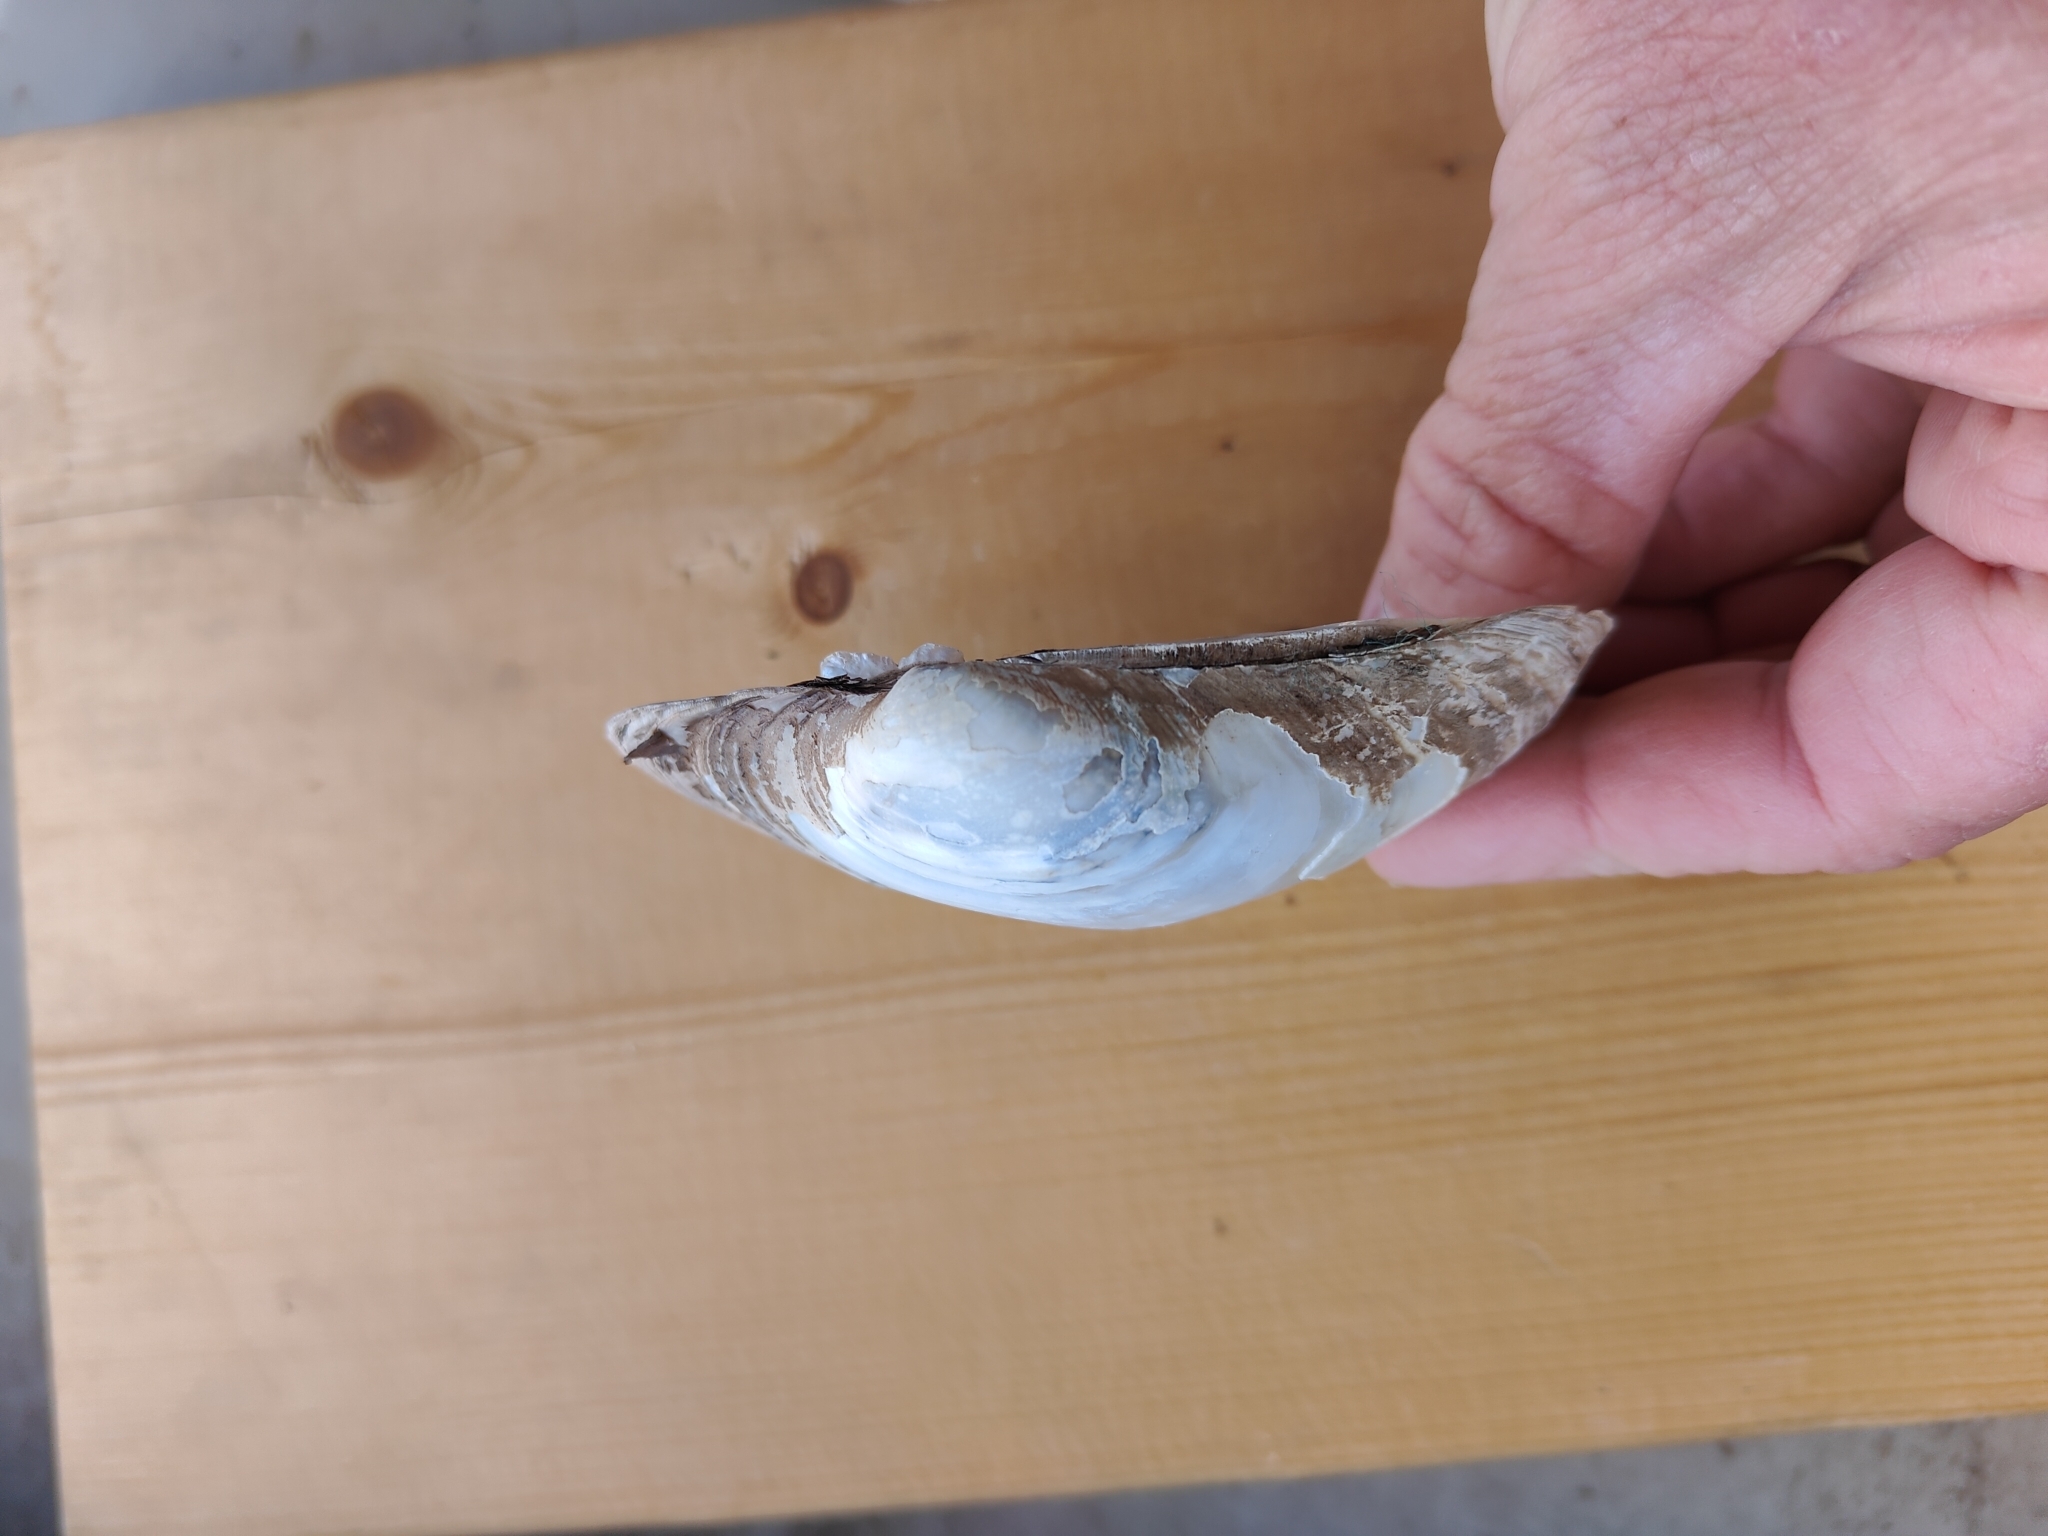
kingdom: Animalia
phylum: Mollusca
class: Bivalvia
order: Unionida
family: Unionidae
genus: Lampsilis
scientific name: Lampsilis cardium
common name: Plain pocketbook
